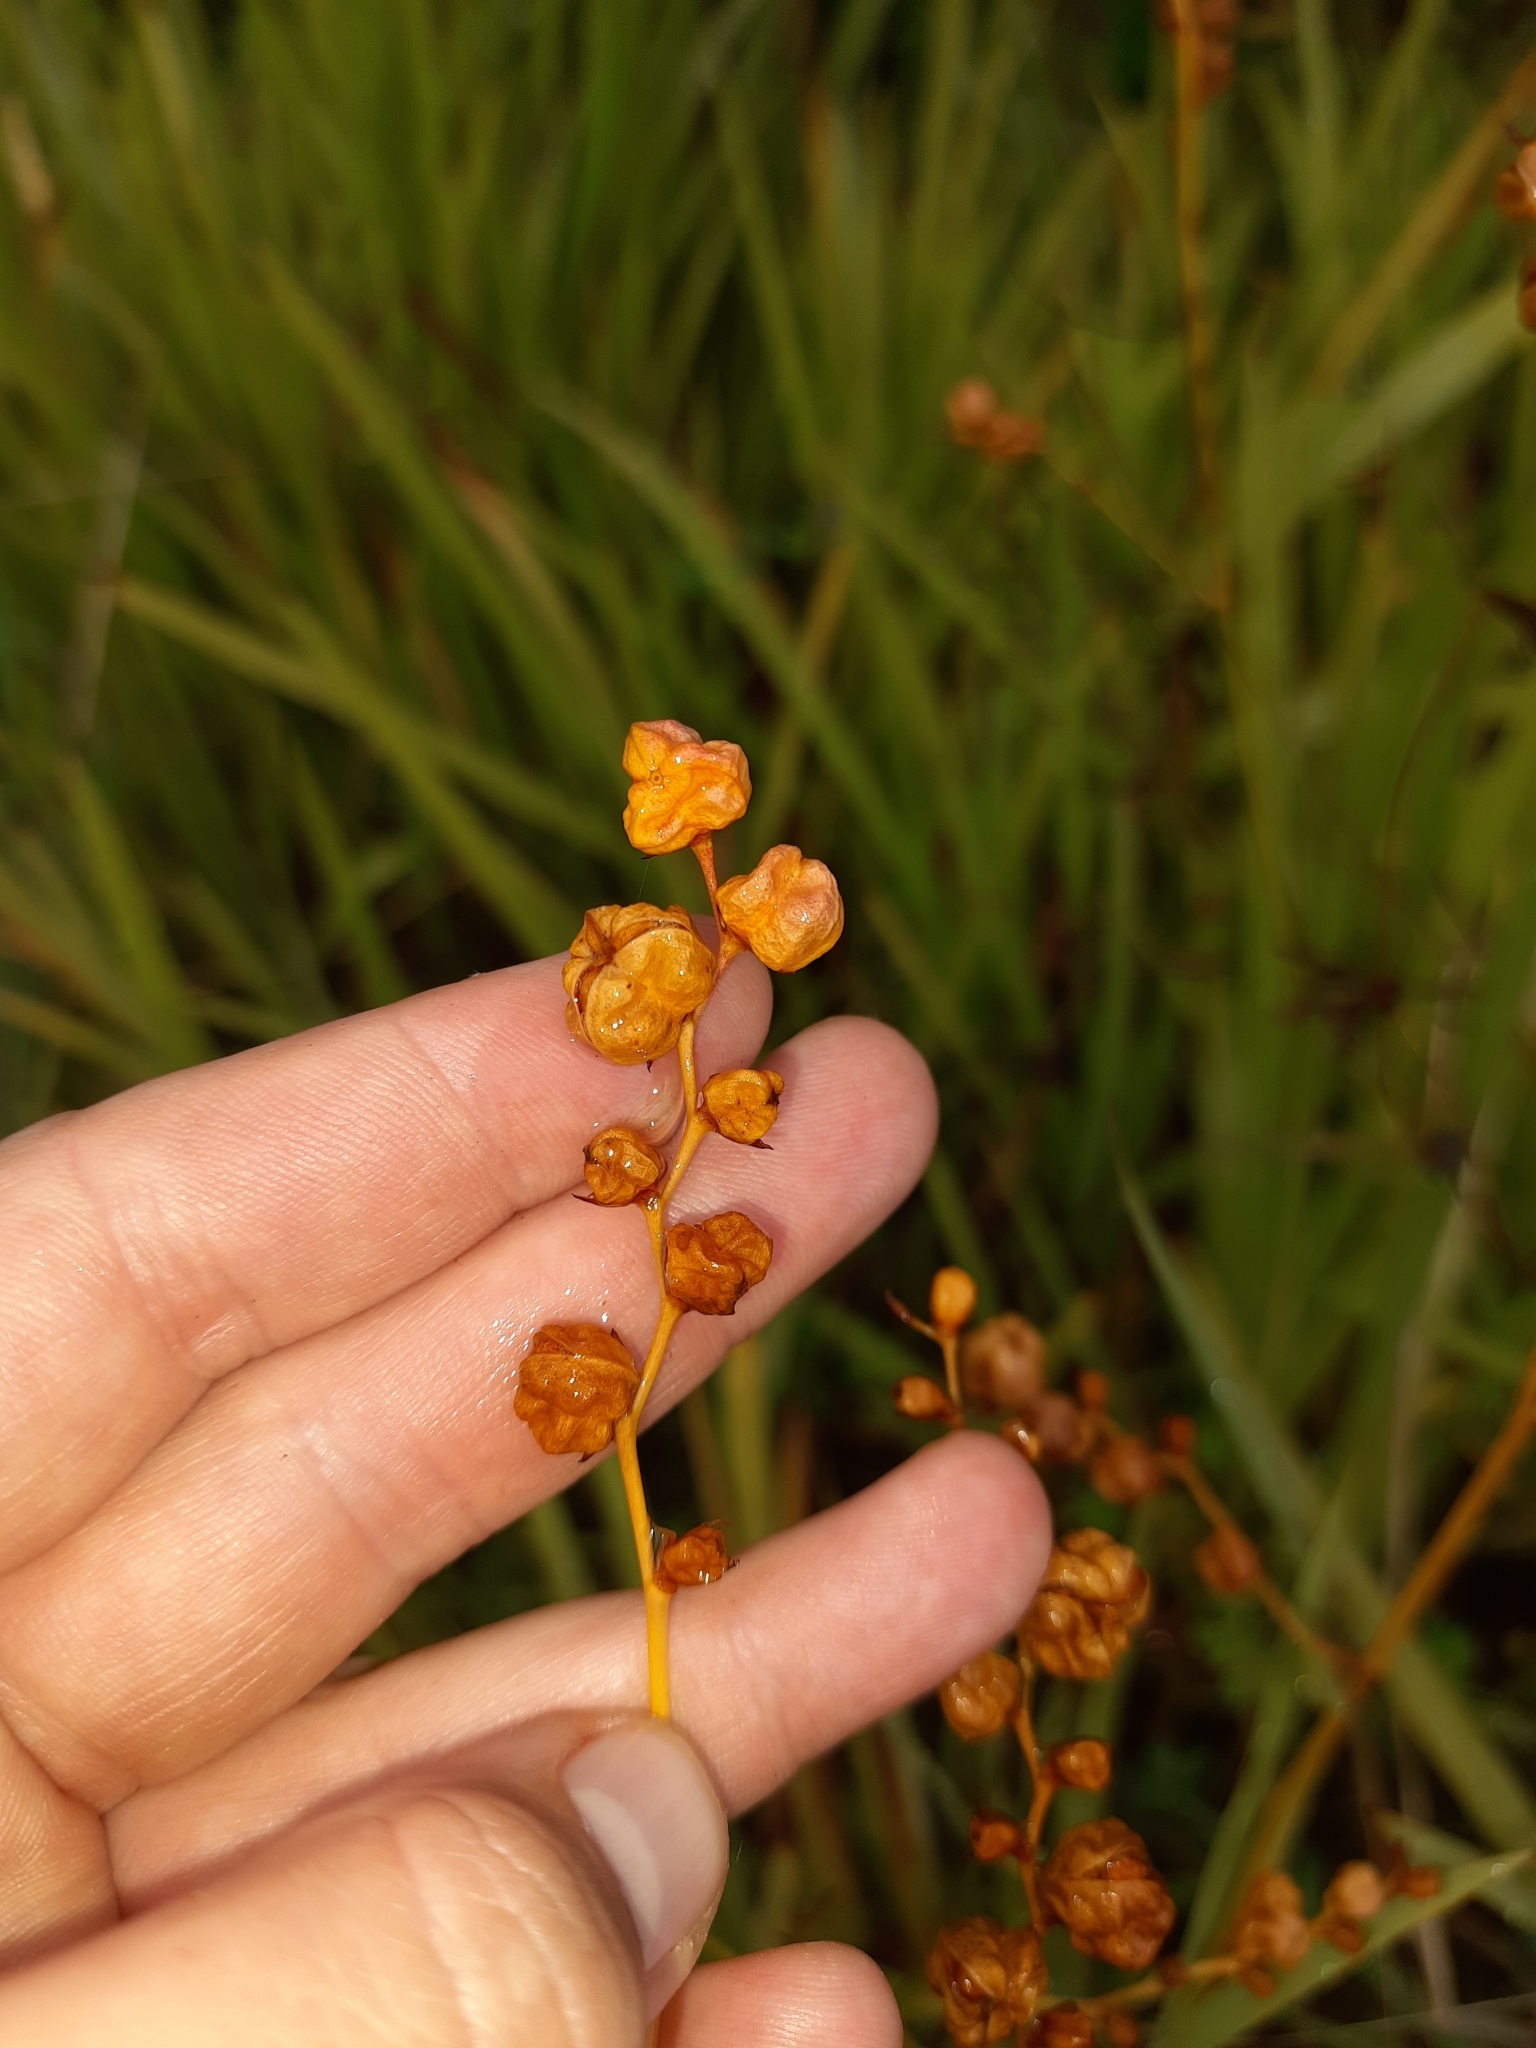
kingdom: Plantae
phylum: Tracheophyta
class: Liliopsida
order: Asparagales
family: Iridaceae
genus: Crocosmia
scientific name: Crocosmia crocosmiiflora
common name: Montbretia
